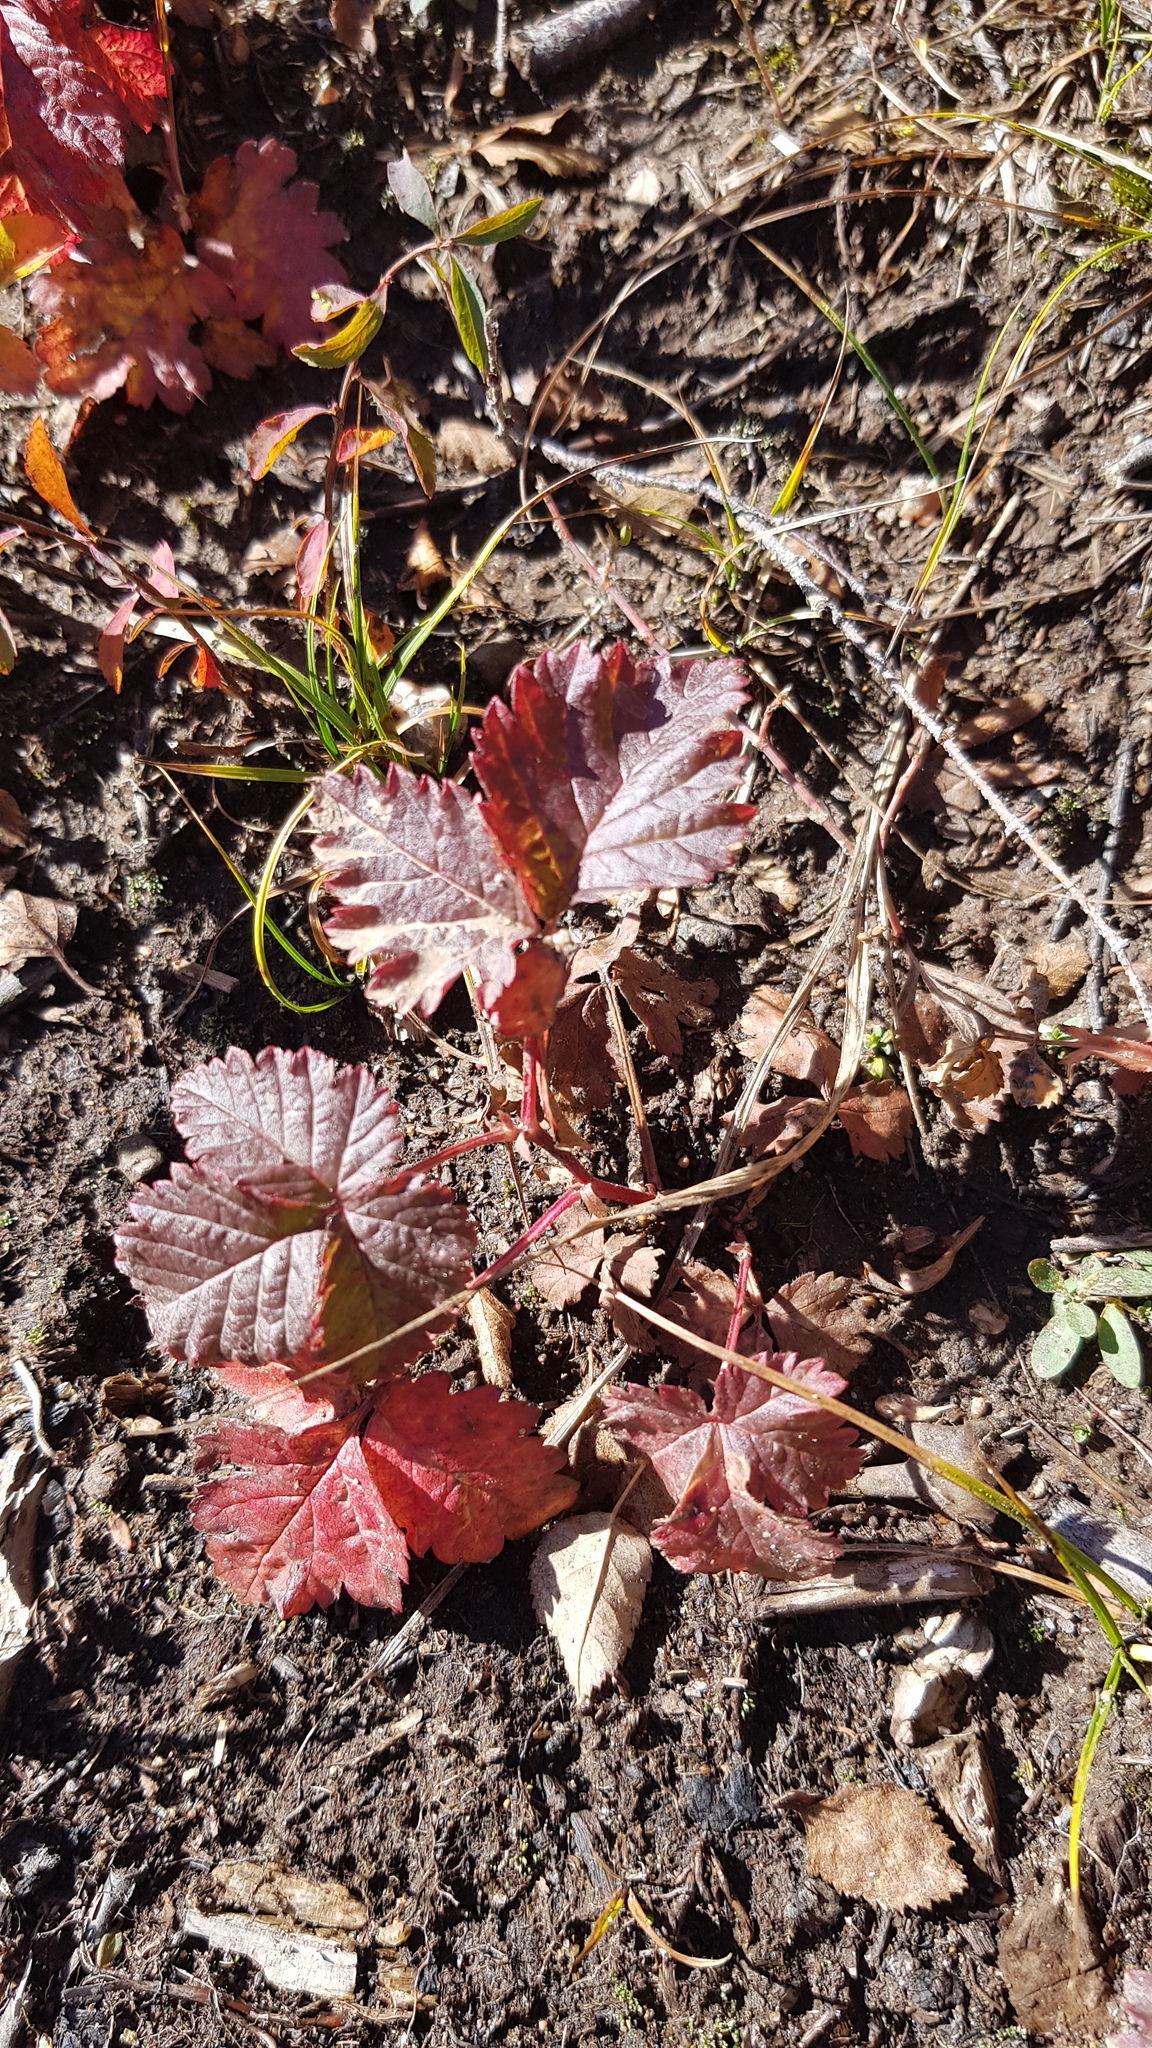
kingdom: Plantae
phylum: Tracheophyta
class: Magnoliopsida
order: Rosales
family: Rosaceae
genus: Rubus
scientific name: Rubus arcticus
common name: Arctic bramble
